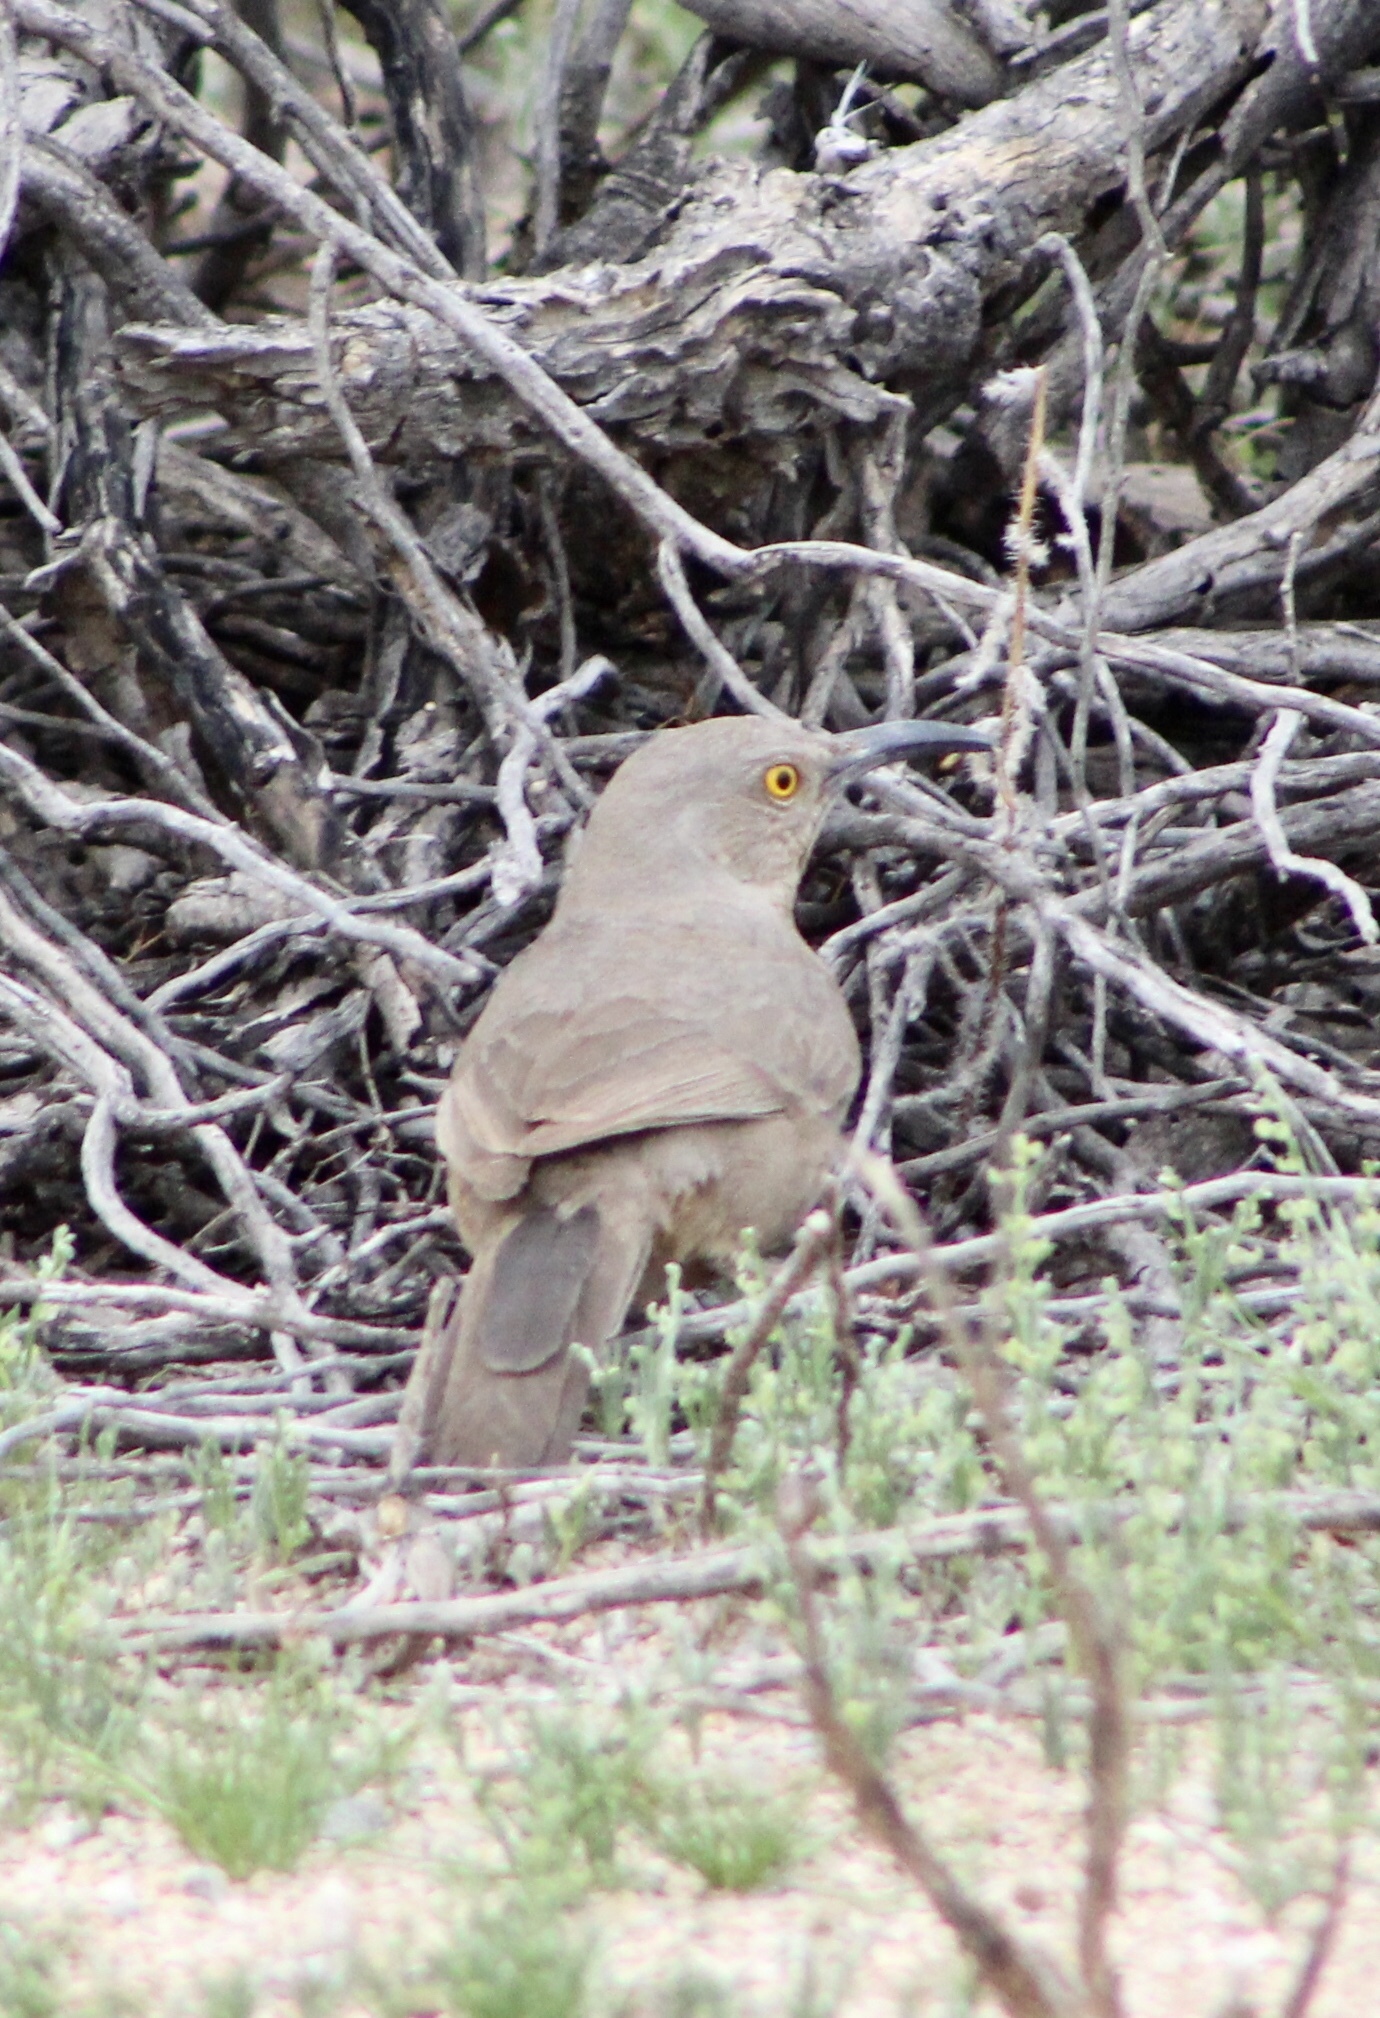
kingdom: Animalia
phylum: Chordata
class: Aves
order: Passeriformes
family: Mimidae
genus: Toxostoma
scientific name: Toxostoma curvirostre
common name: Curve-billed thrasher
